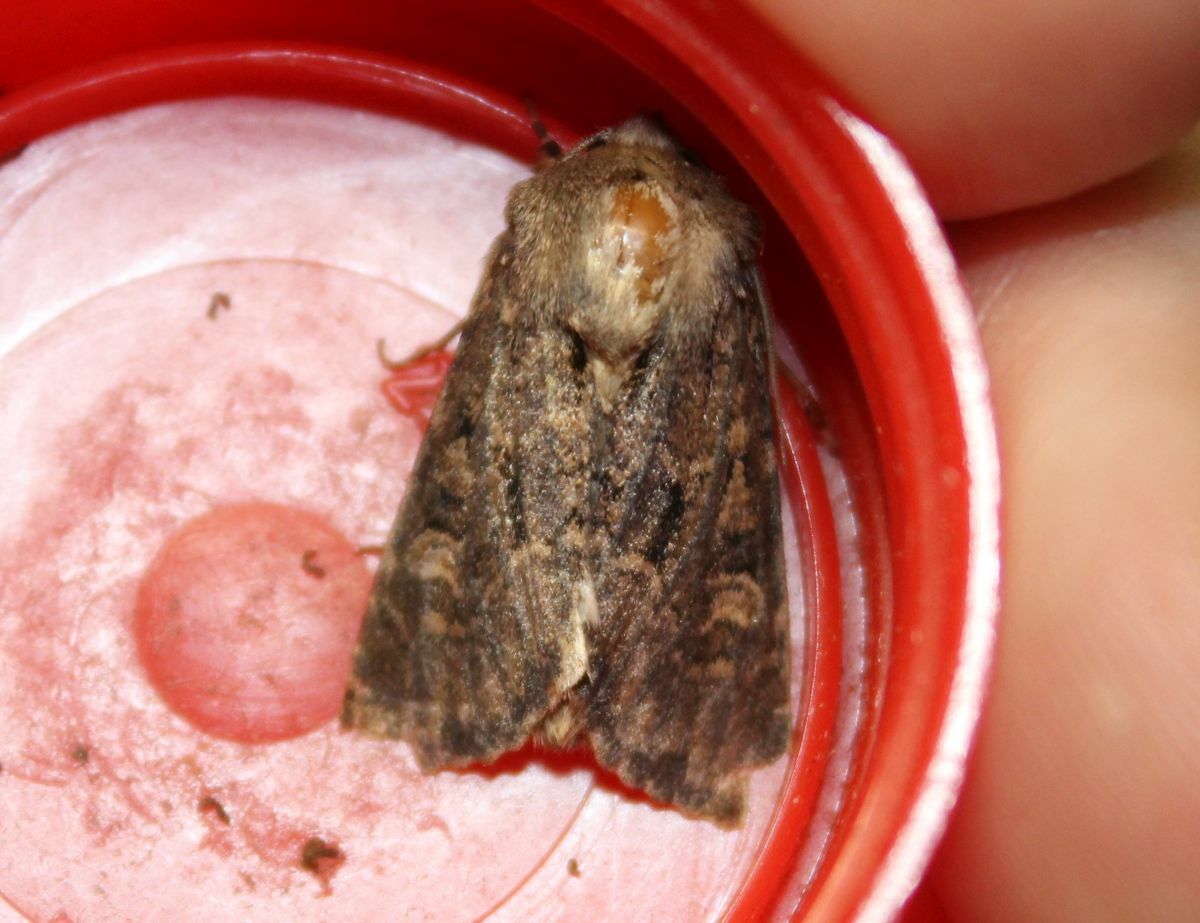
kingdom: Animalia
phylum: Arthropoda
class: Insecta
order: Lepidoptera
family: Noctuidae
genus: Luperina
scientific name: Luperina testacea
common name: Flounced rustic
